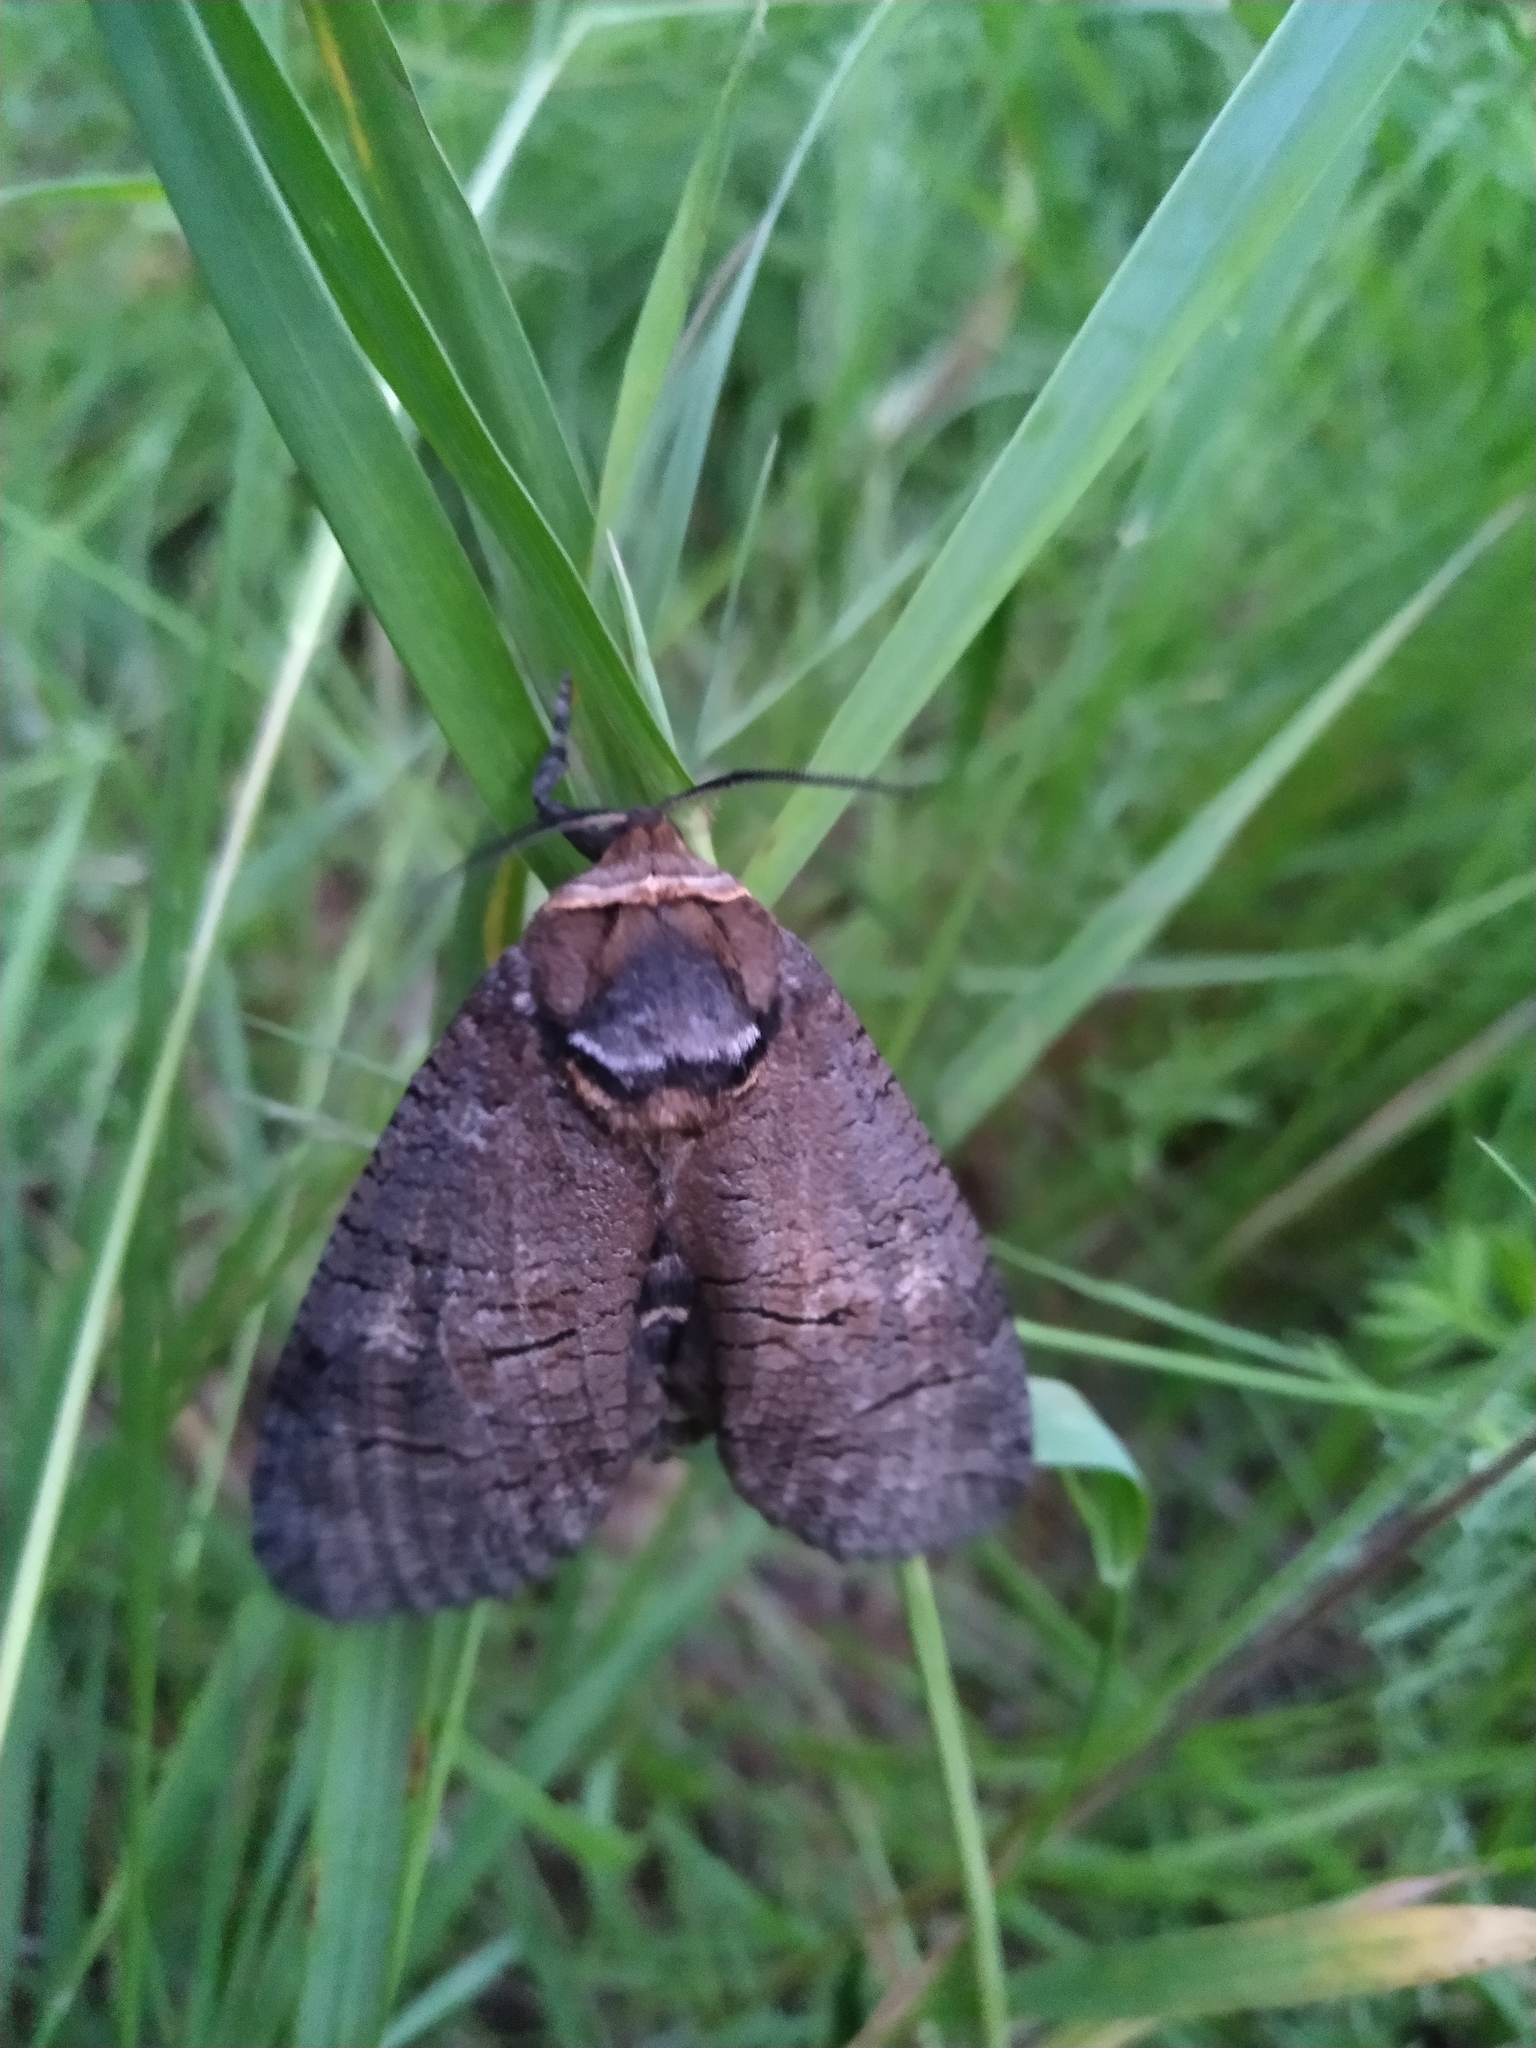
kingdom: Animalia
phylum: Arthropoda
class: Insecta
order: Lepidoptera
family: Cossidae
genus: Cossus
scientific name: Cossus cossus
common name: Goat moth
